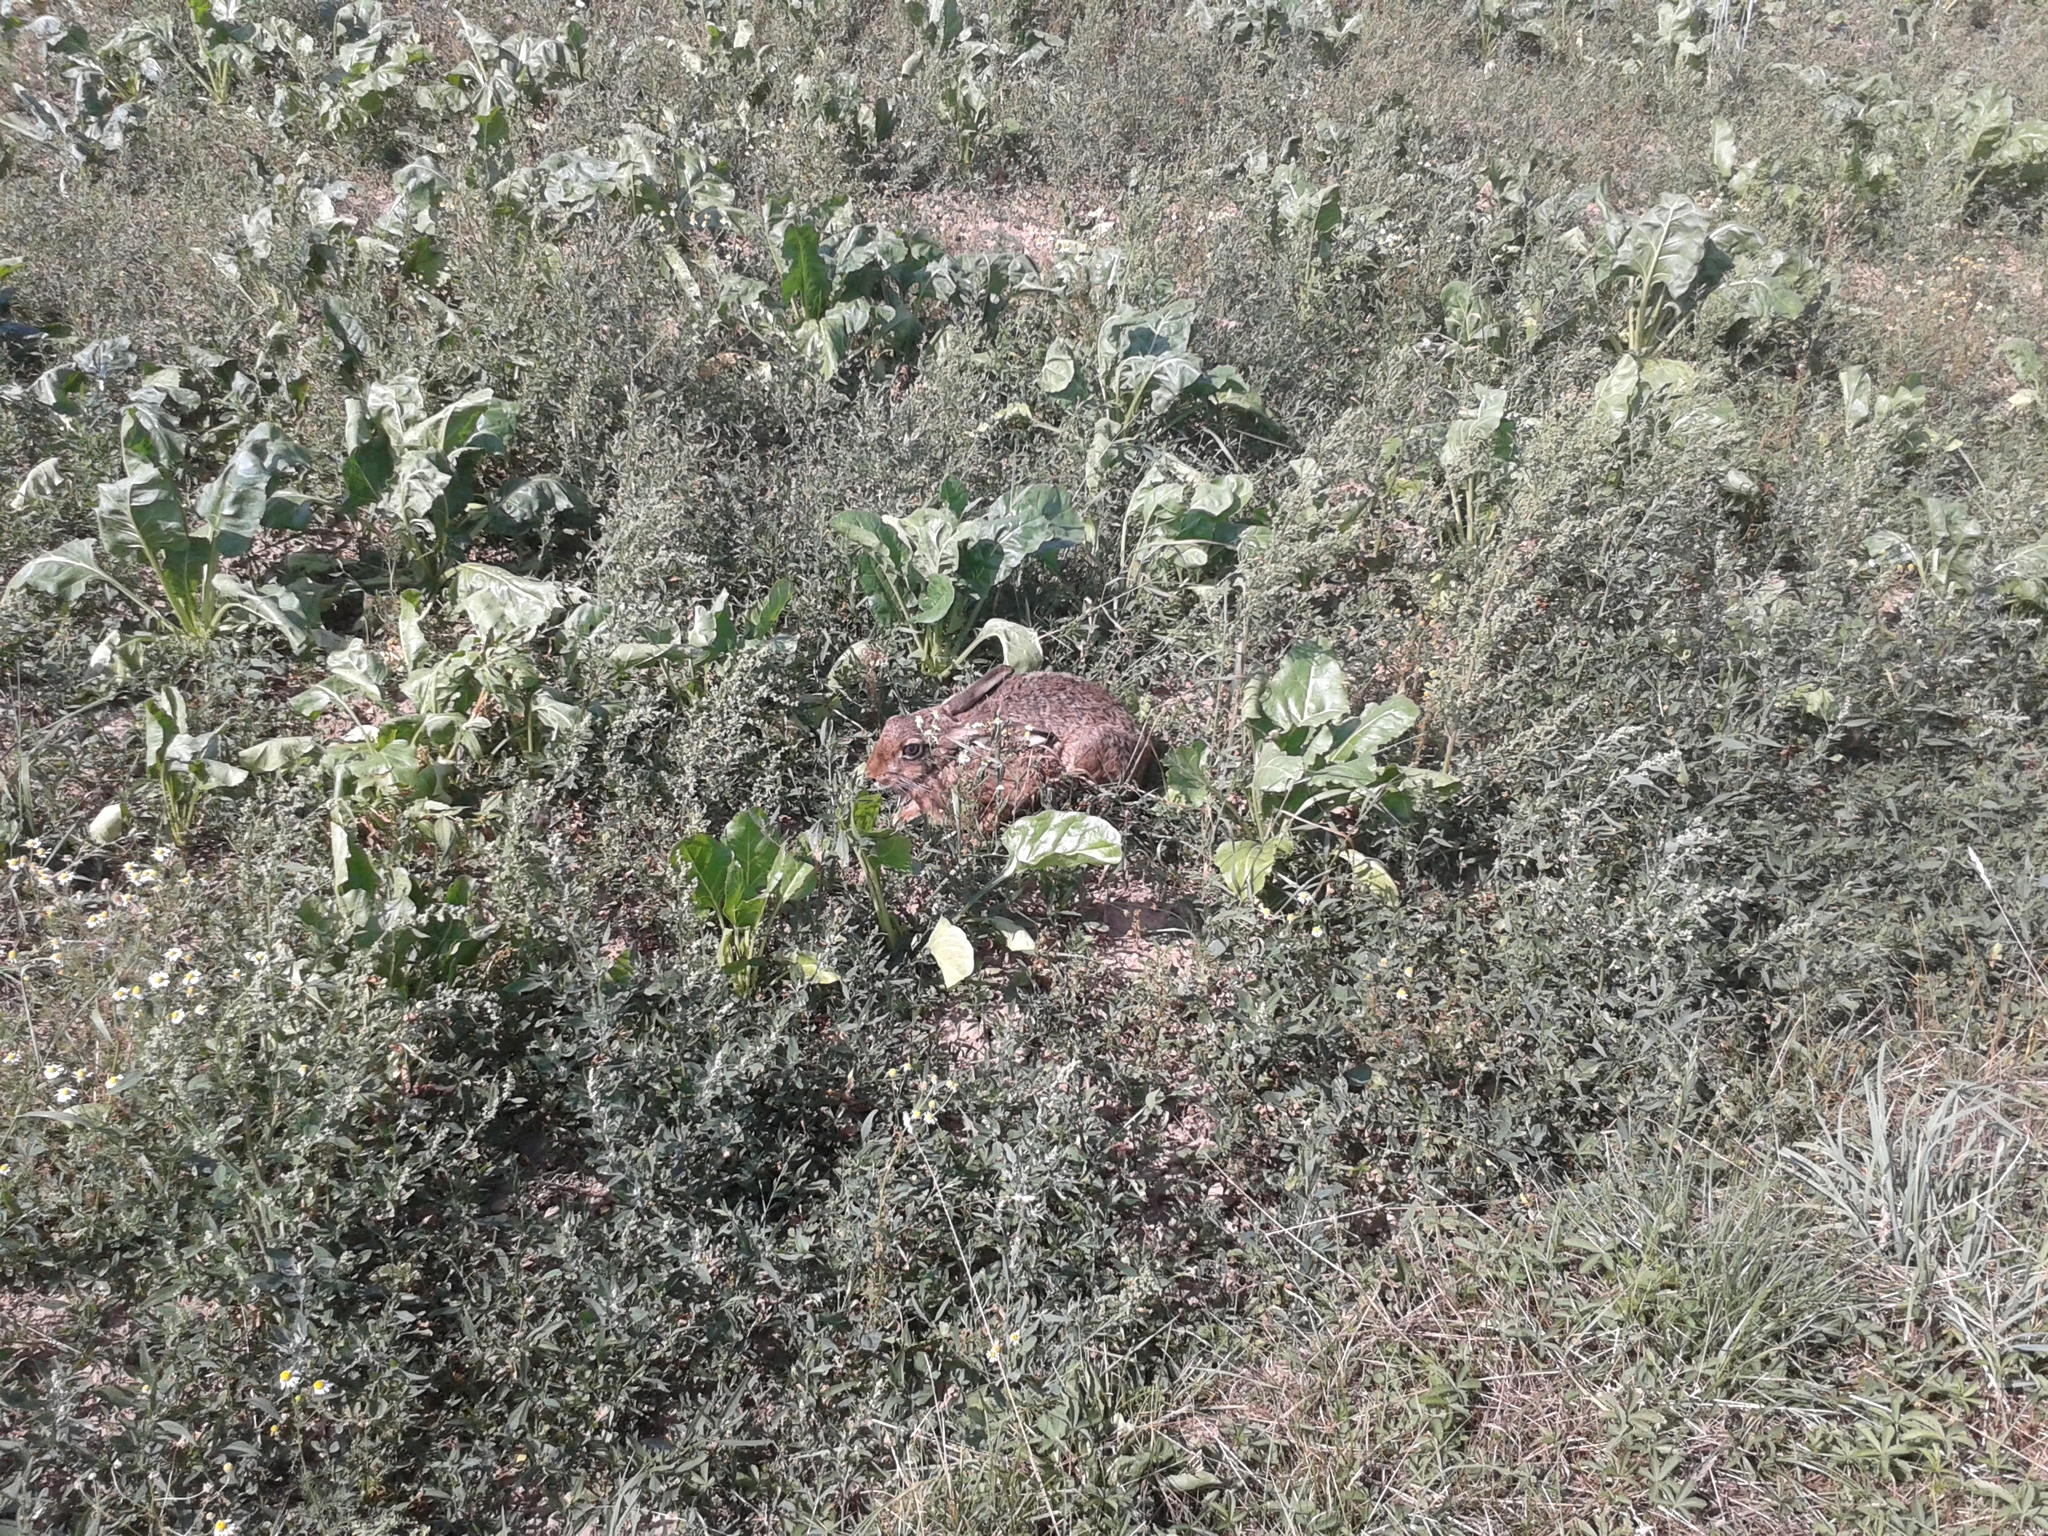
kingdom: Animalia
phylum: Chordata
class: Mammalia
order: Lagomorpha
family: Leporidae
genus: Lepus
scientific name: Lepus europaeus
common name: European hare
